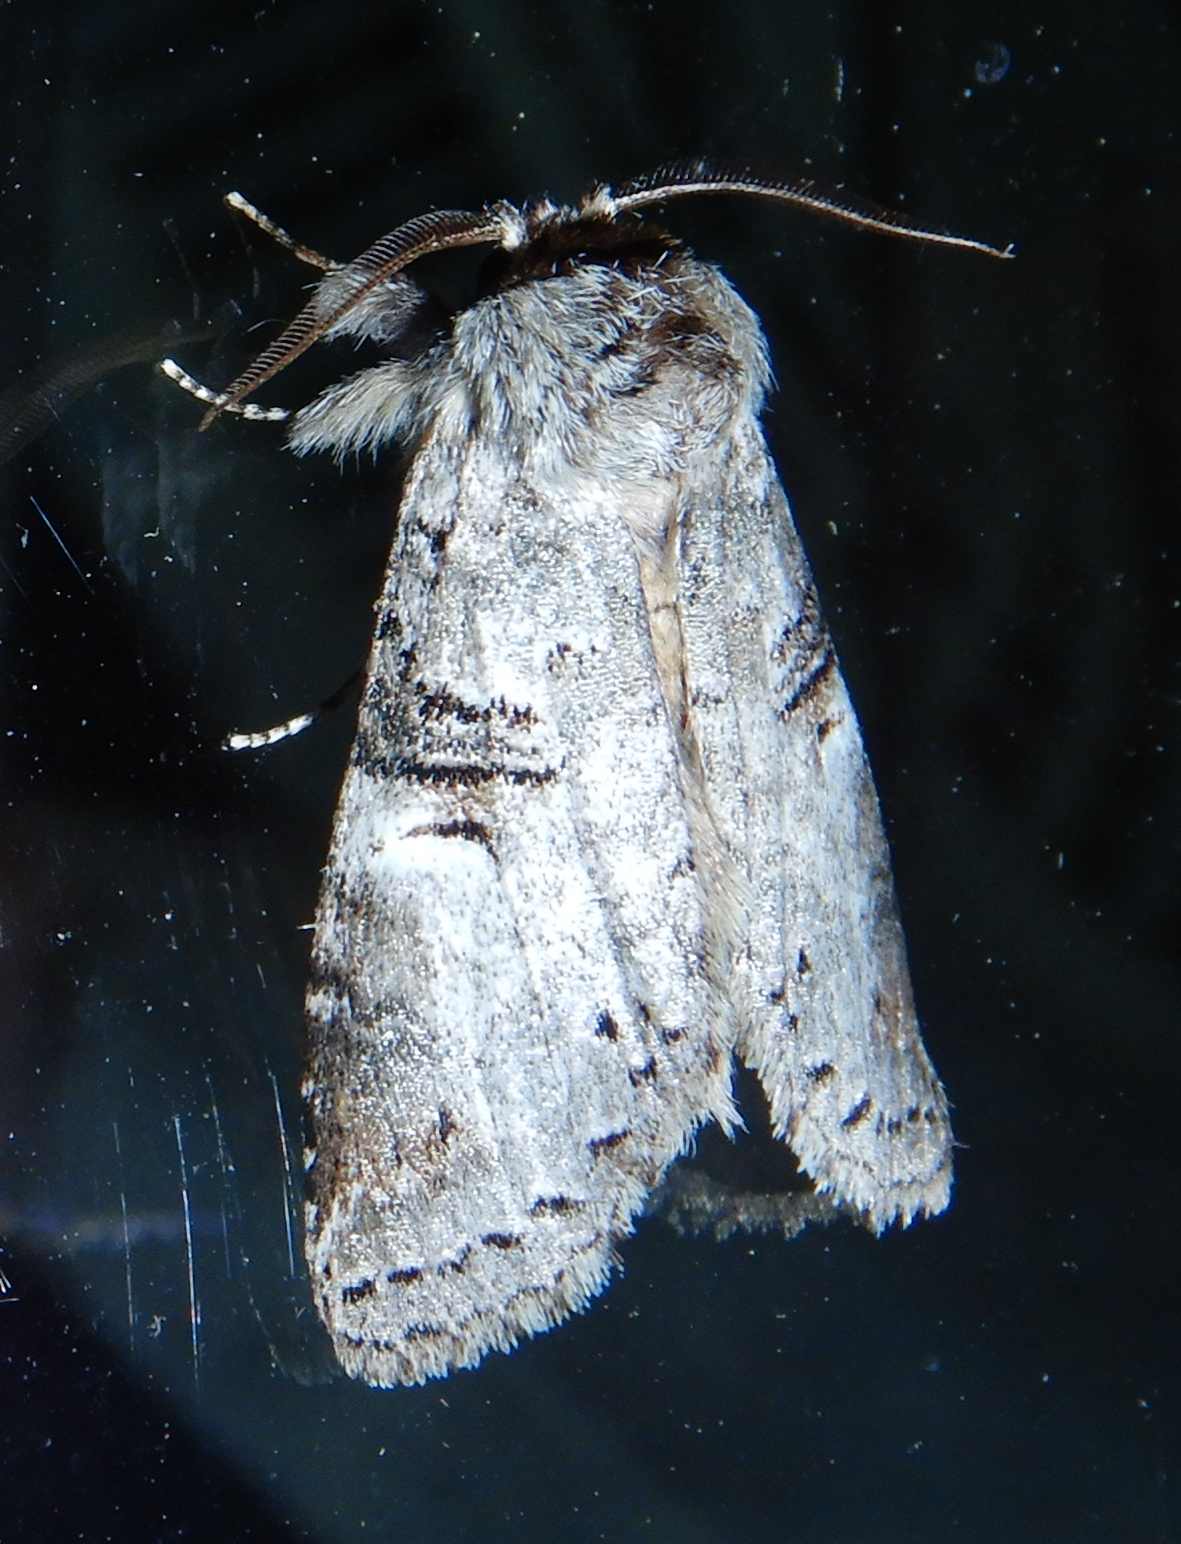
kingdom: Animalia
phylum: Arthropoda
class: Insecta
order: Lepidoptera
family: Notodontidae
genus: Ellida
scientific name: Ellida caniplaga
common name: Linden prominent
